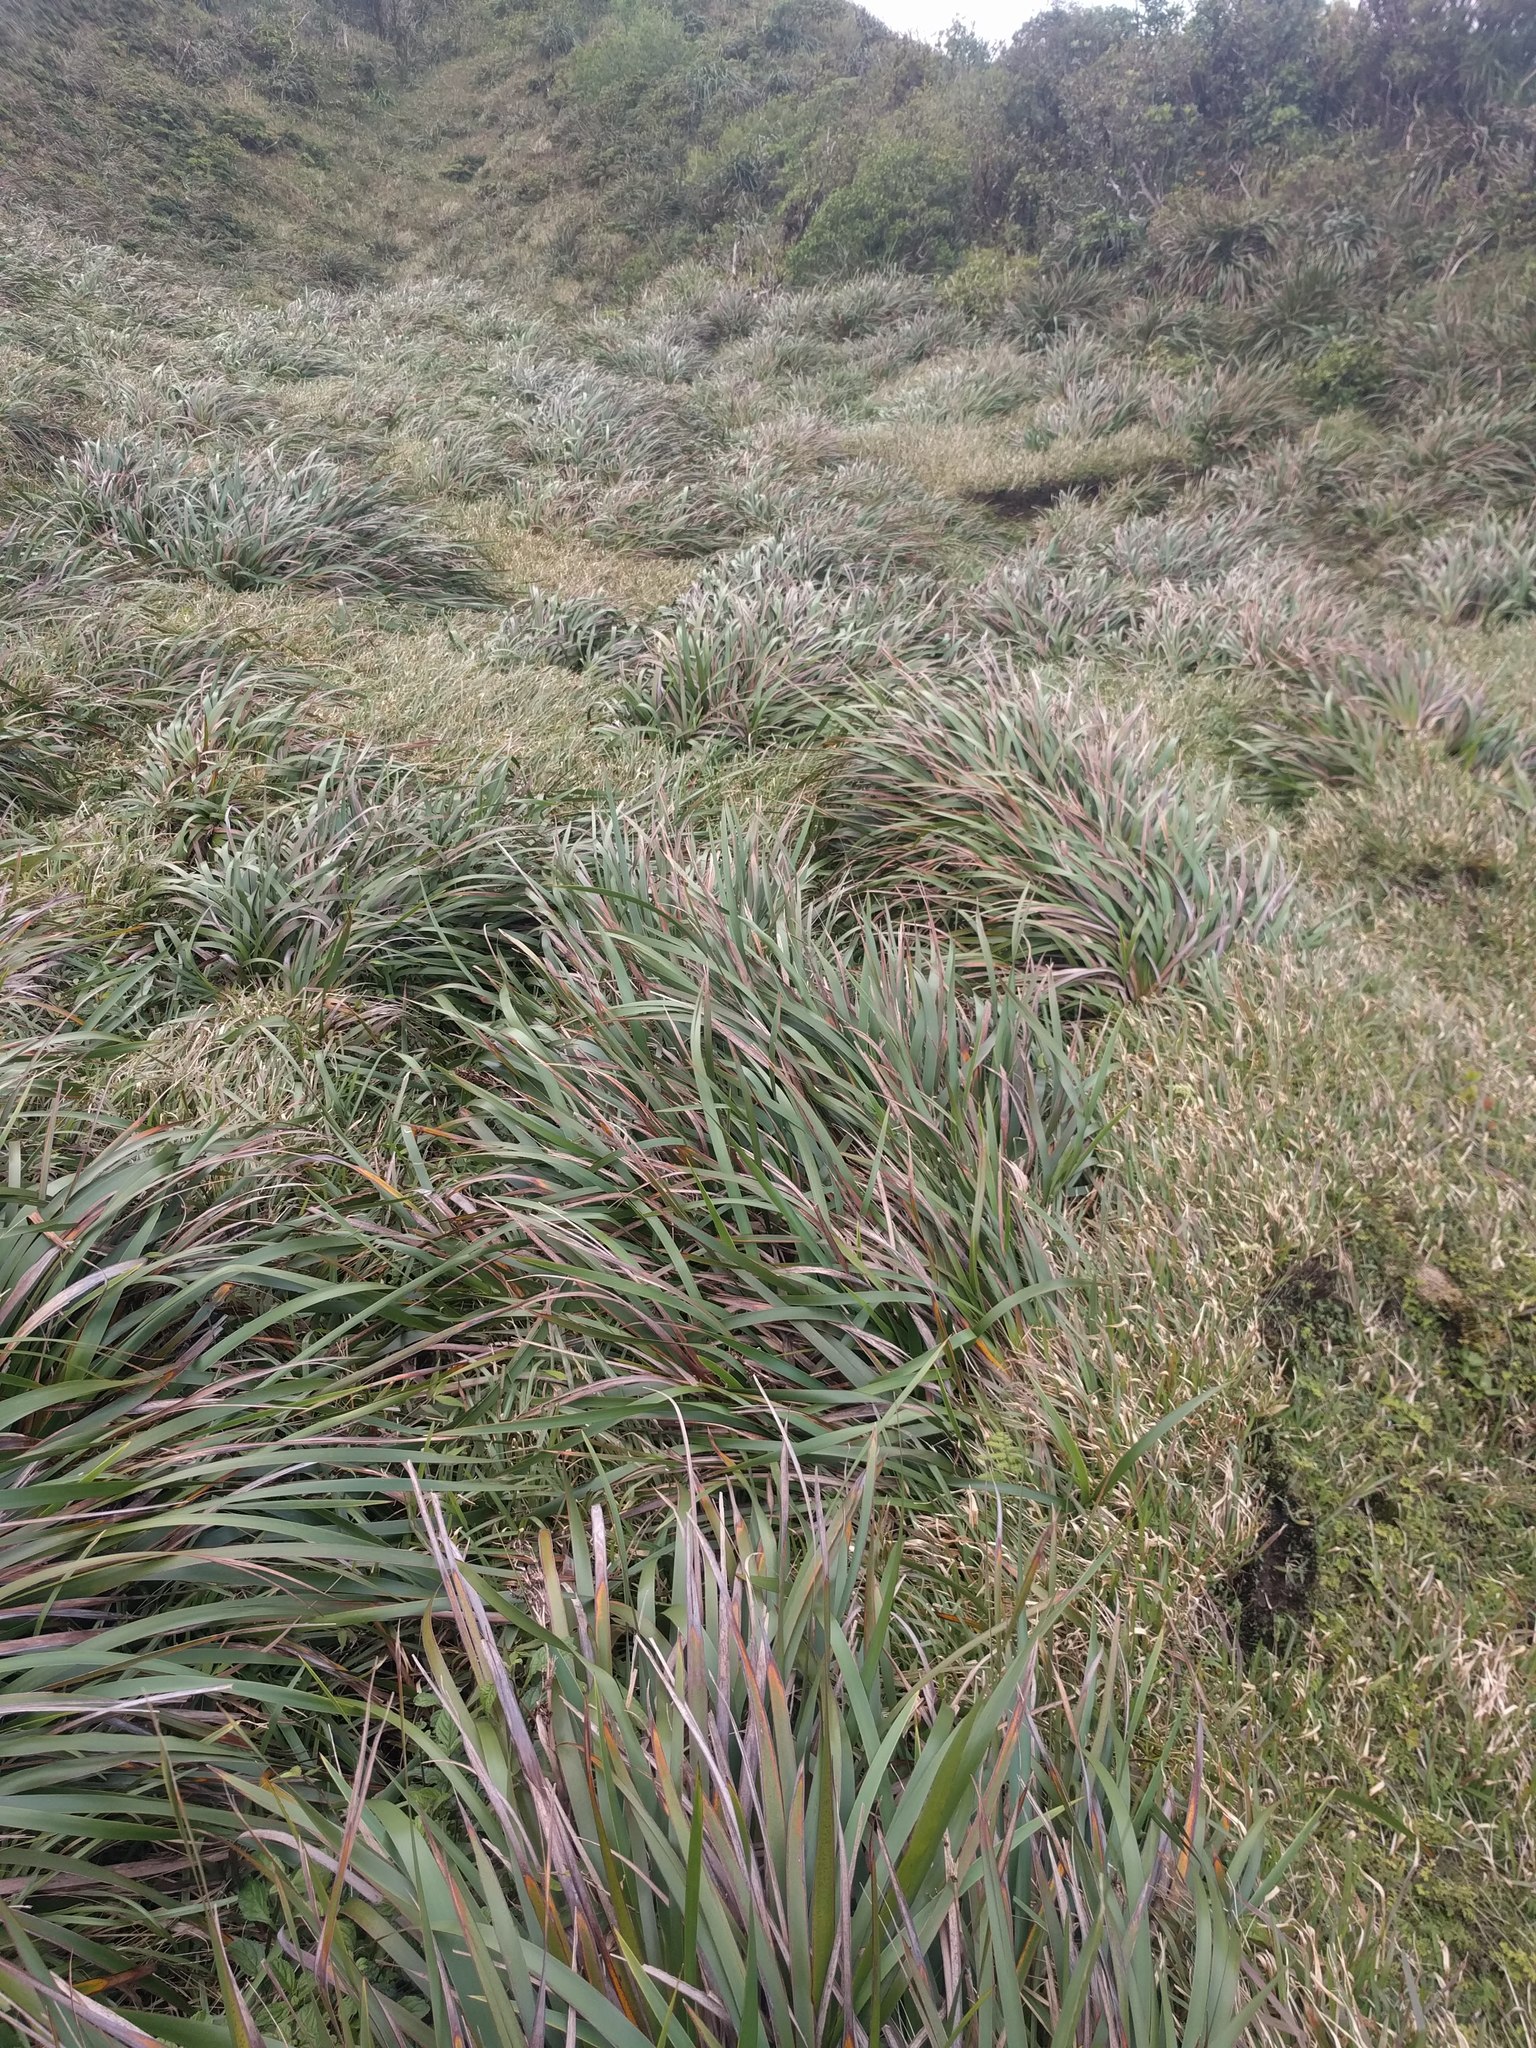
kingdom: Plantae
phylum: Tracheophyta
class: Liliopsida
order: Poales
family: Cyperaceae
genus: Machaerina
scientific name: Machaerina angustifolia
